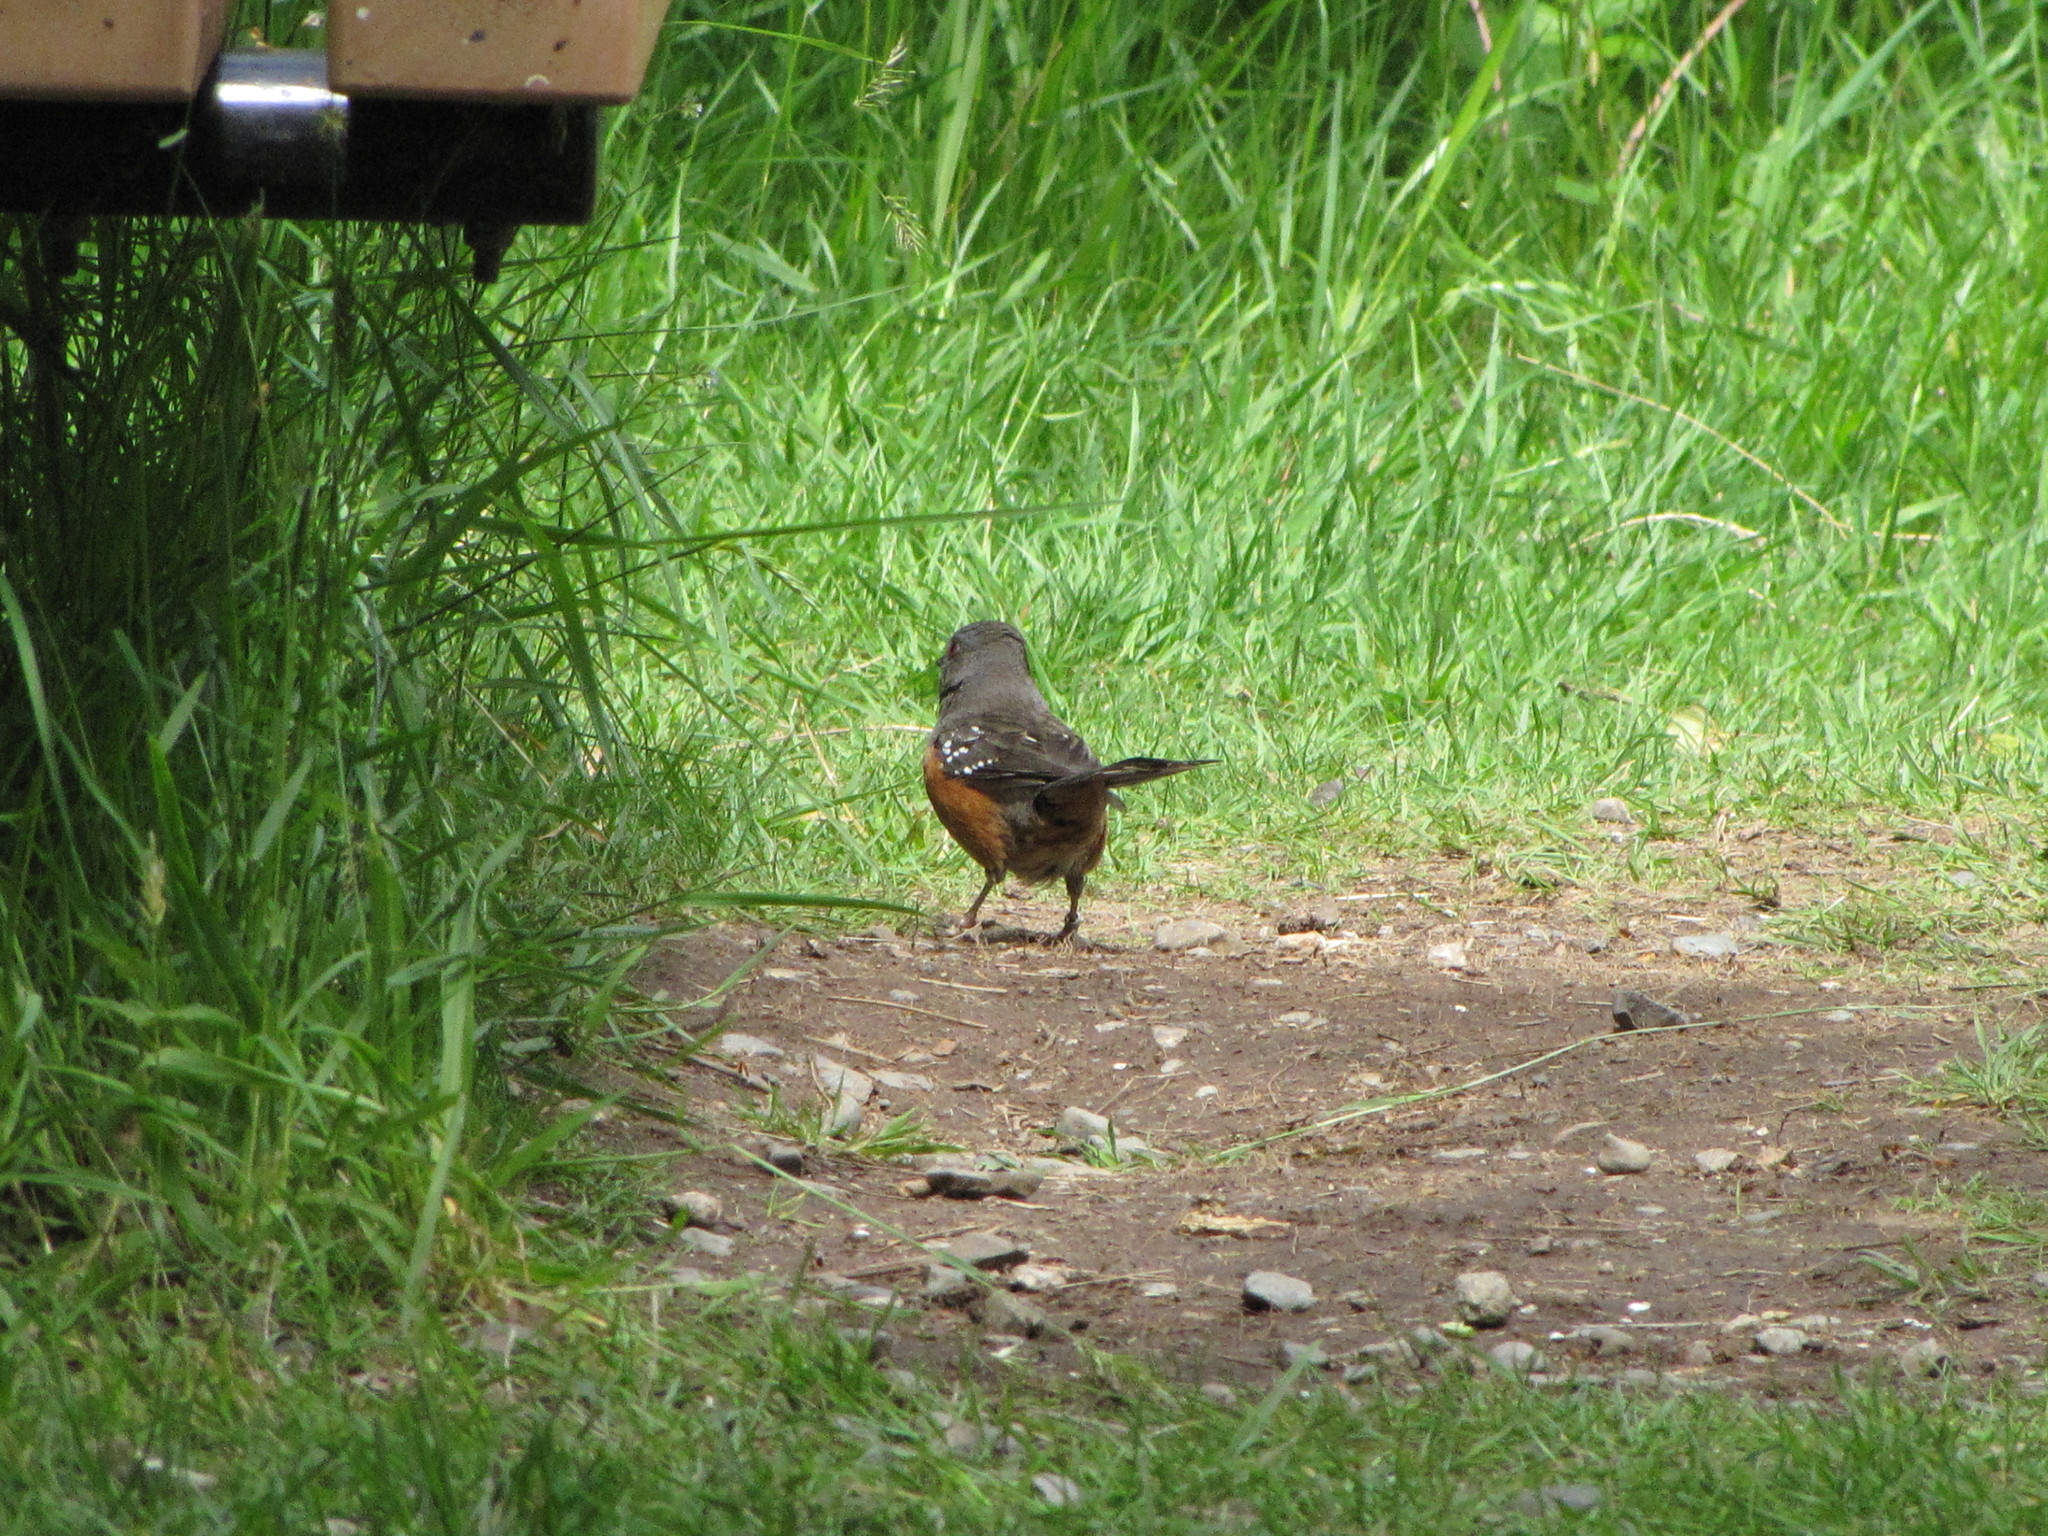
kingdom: Animalia
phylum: Chordata
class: Aves
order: Passeriformes
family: Passerellidae
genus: Pipilo
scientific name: Pipilo maculatus
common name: Spotted towhee
